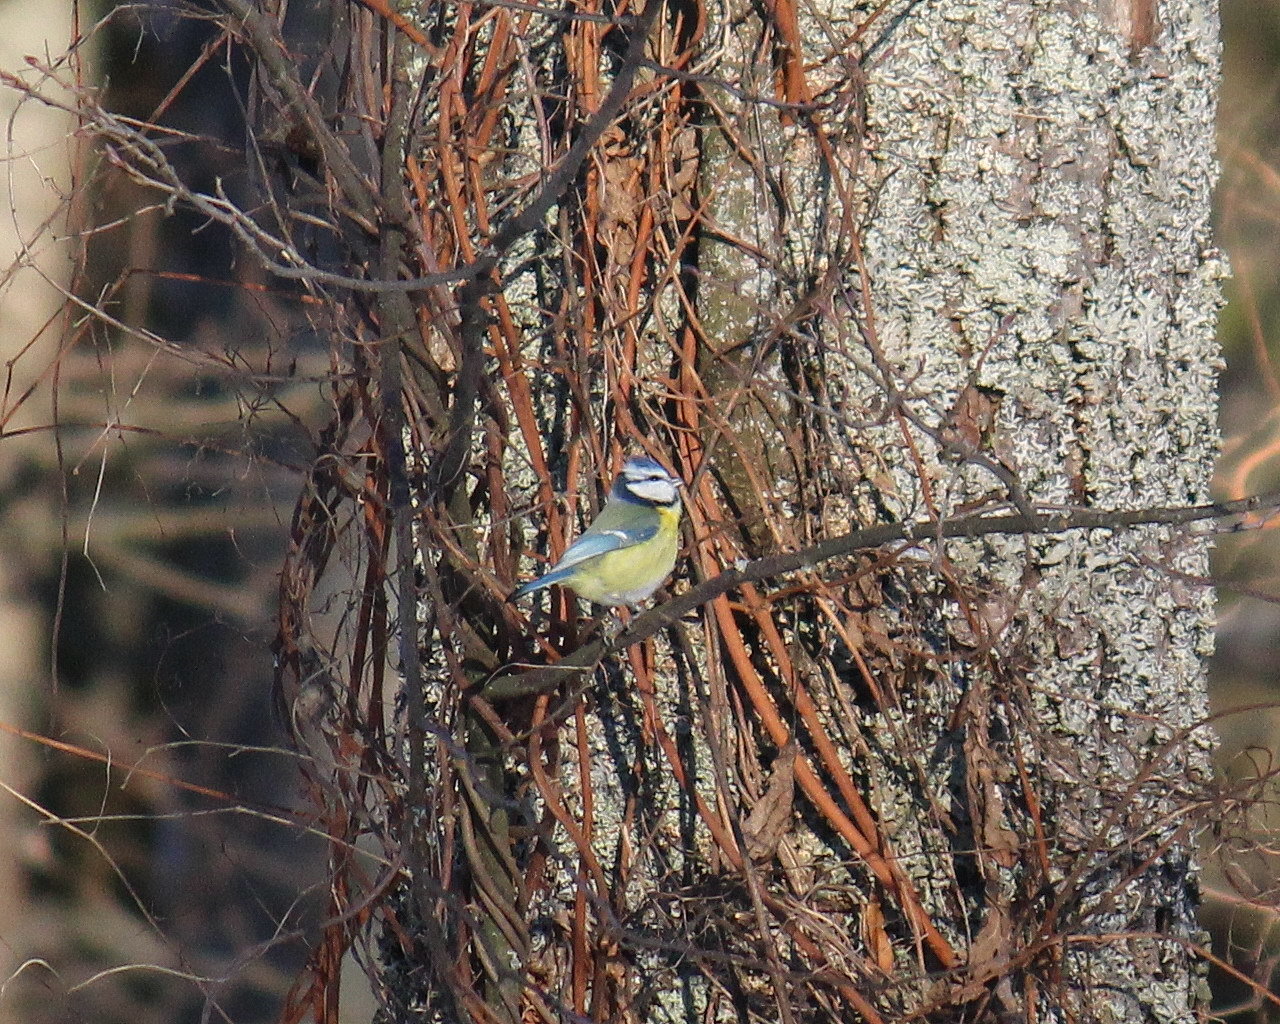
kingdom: Animalia
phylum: Chordata
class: Aves
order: Passeriformes
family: Paridae
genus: Cyanistes
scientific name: Cyanistes caeruleus
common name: Eurasian blue tit
